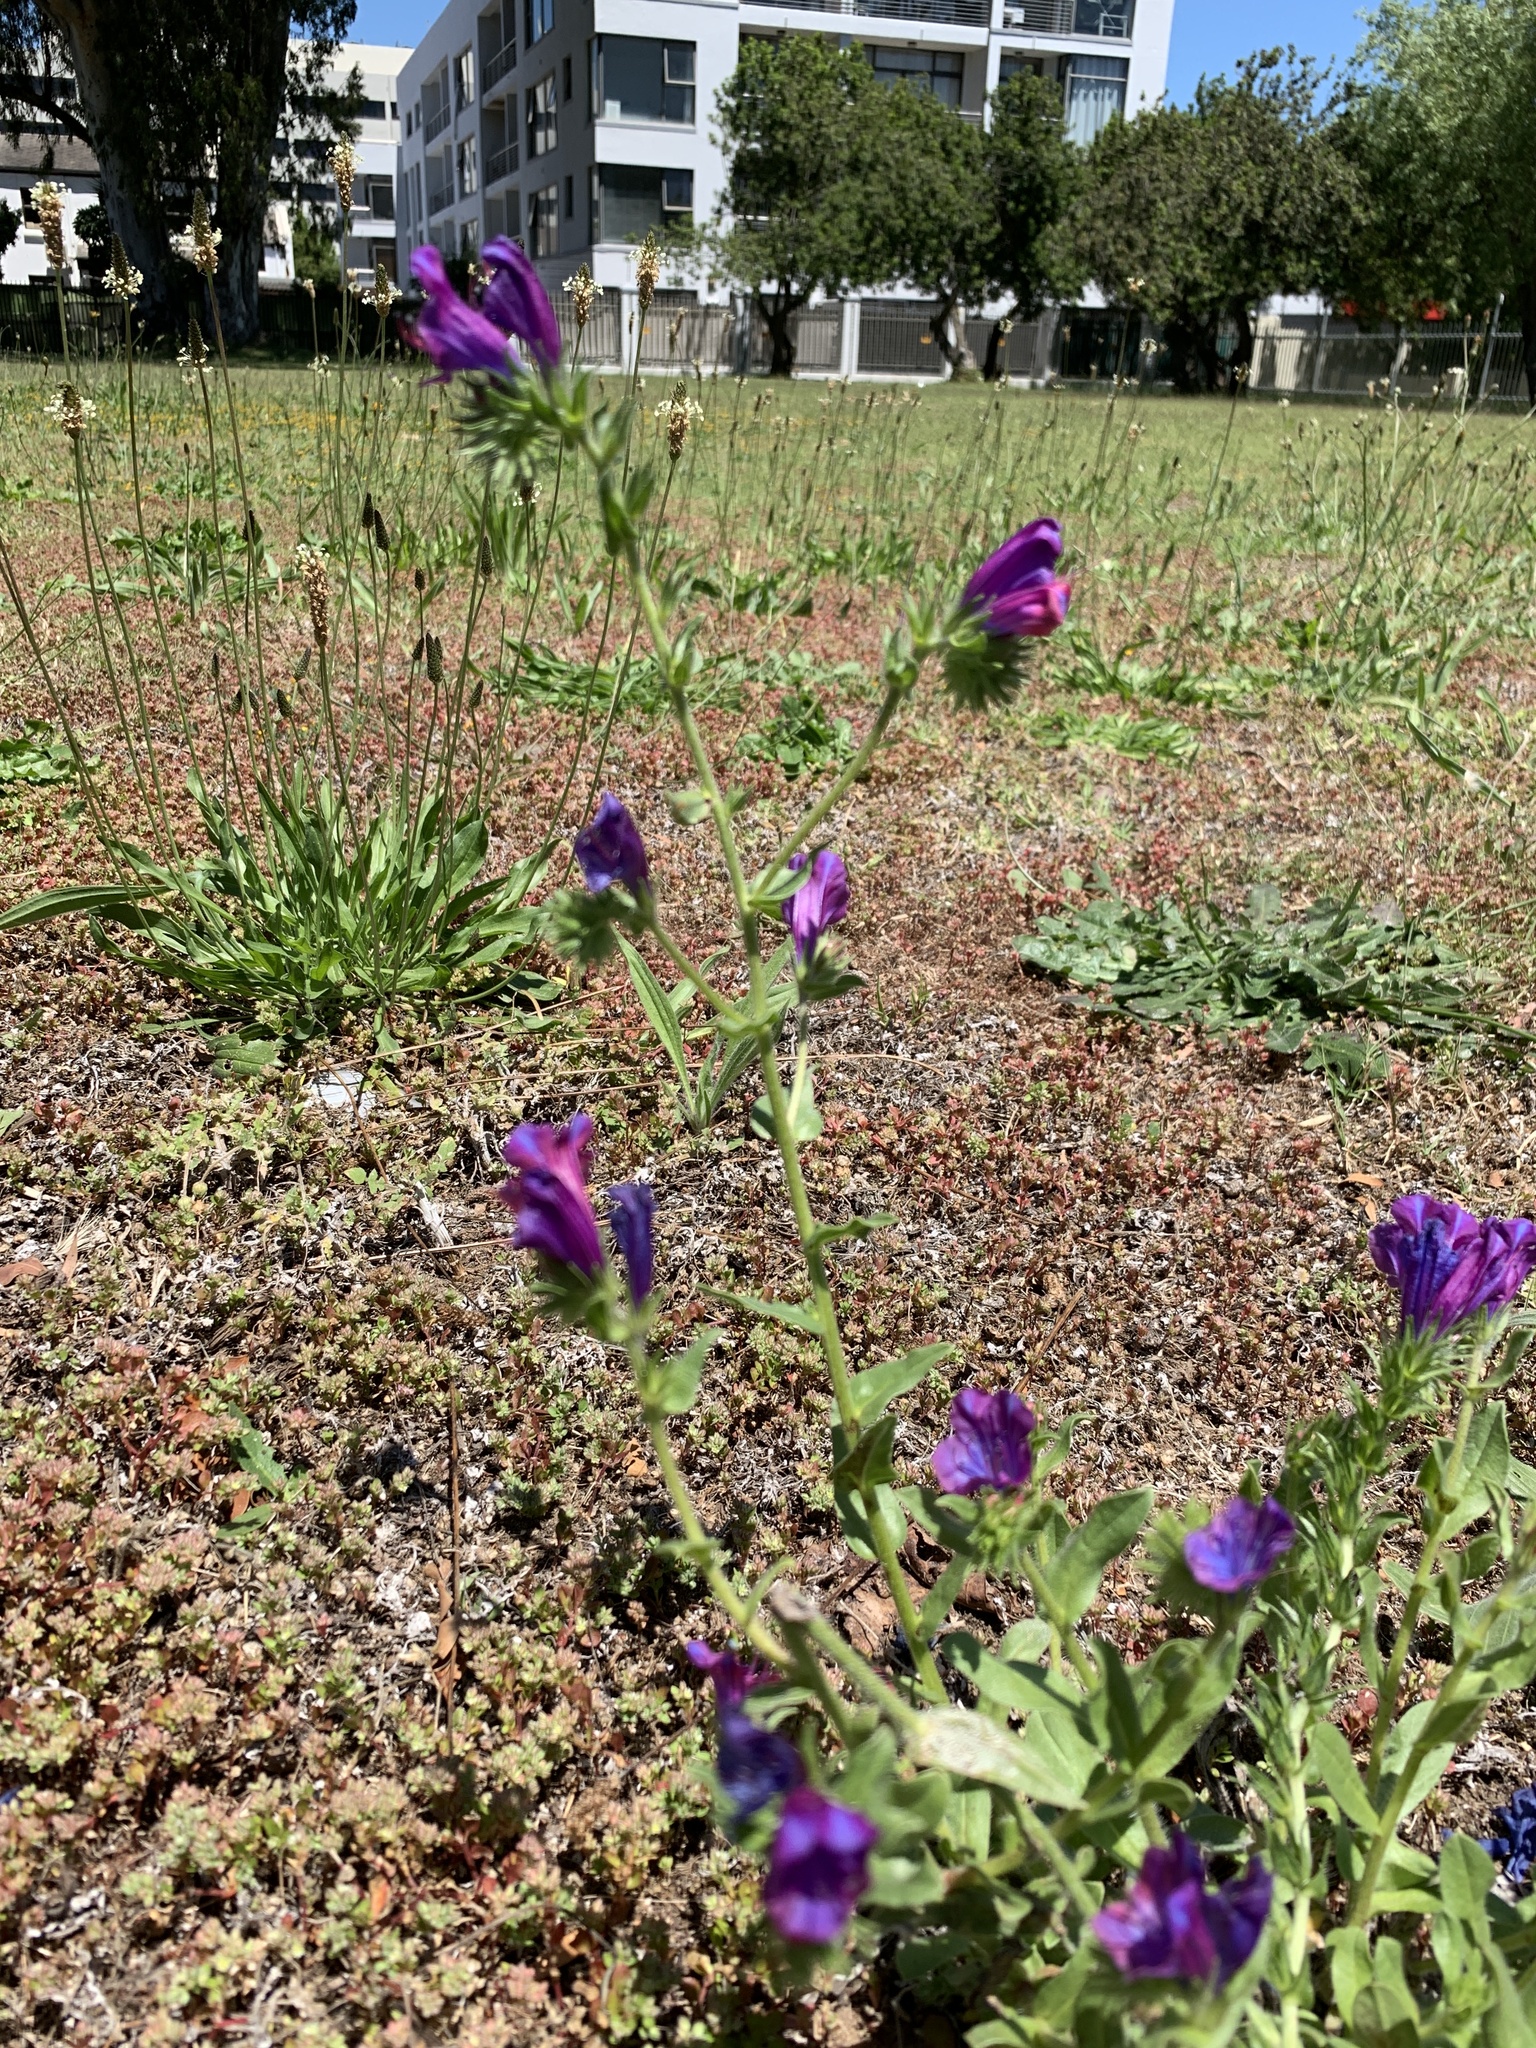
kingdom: Plantae
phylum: Tracheophyta
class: Magnoliopsida
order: Boraginales
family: Boraginaceae
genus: Echium
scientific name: Echium plantagineum
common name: Purple viper's-bugloss
